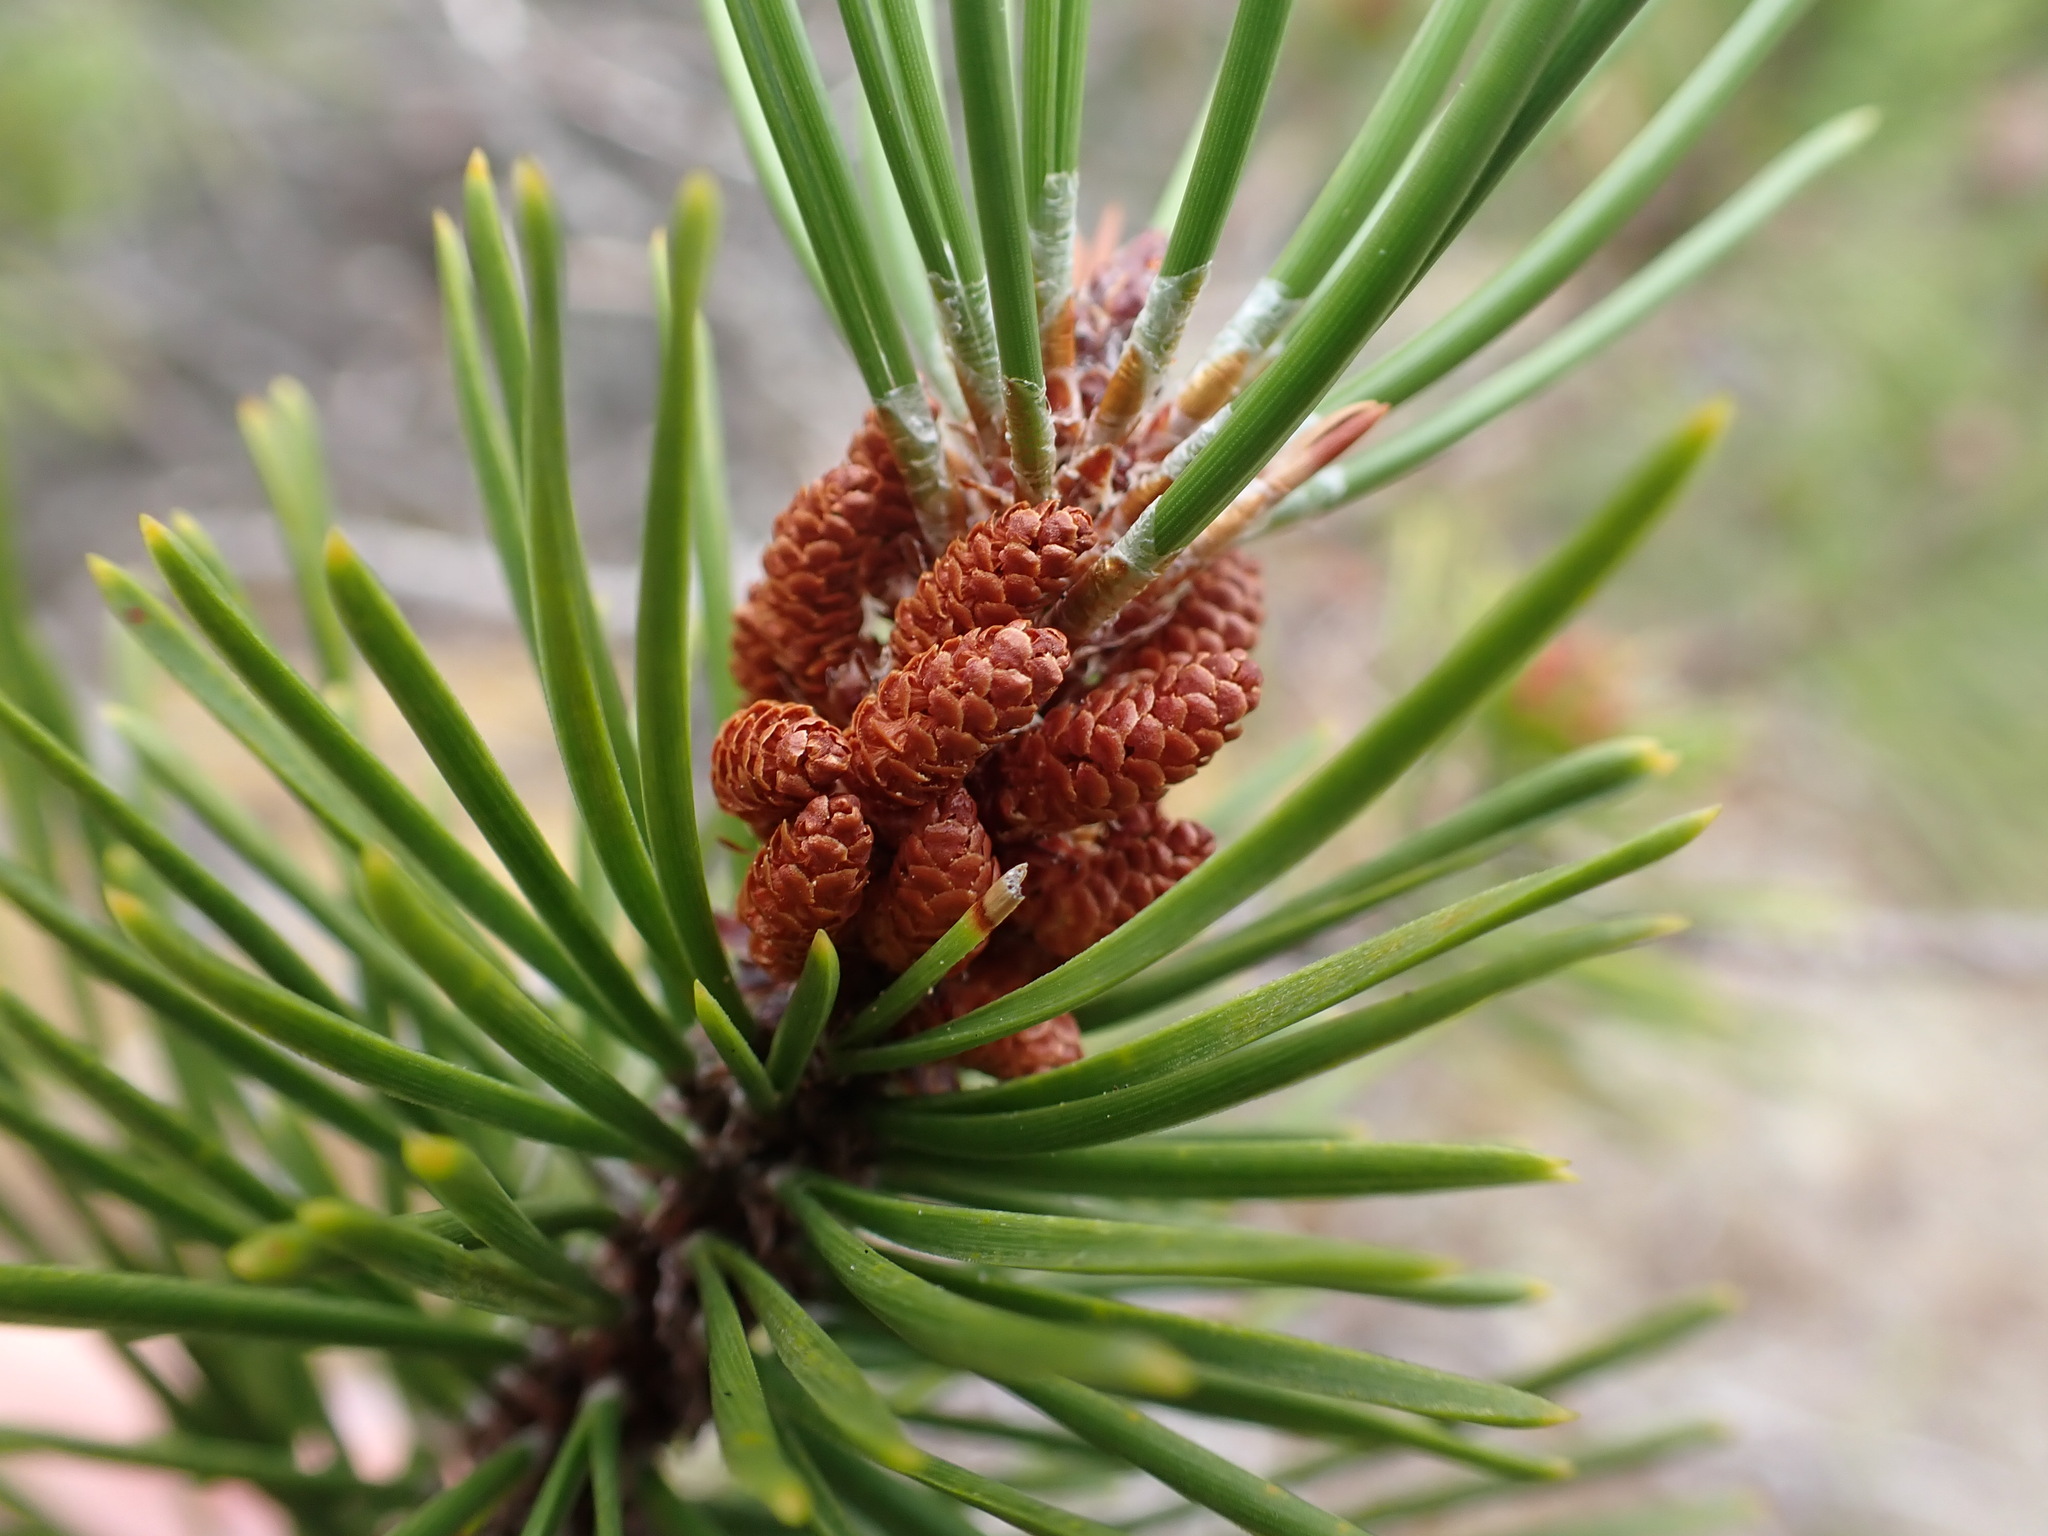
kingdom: Plantae
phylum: Tracheophyta
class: Pinopsida
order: Pinales
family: Pinaceae
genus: Pinus
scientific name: Pinus contorta
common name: Lodgepole pine
